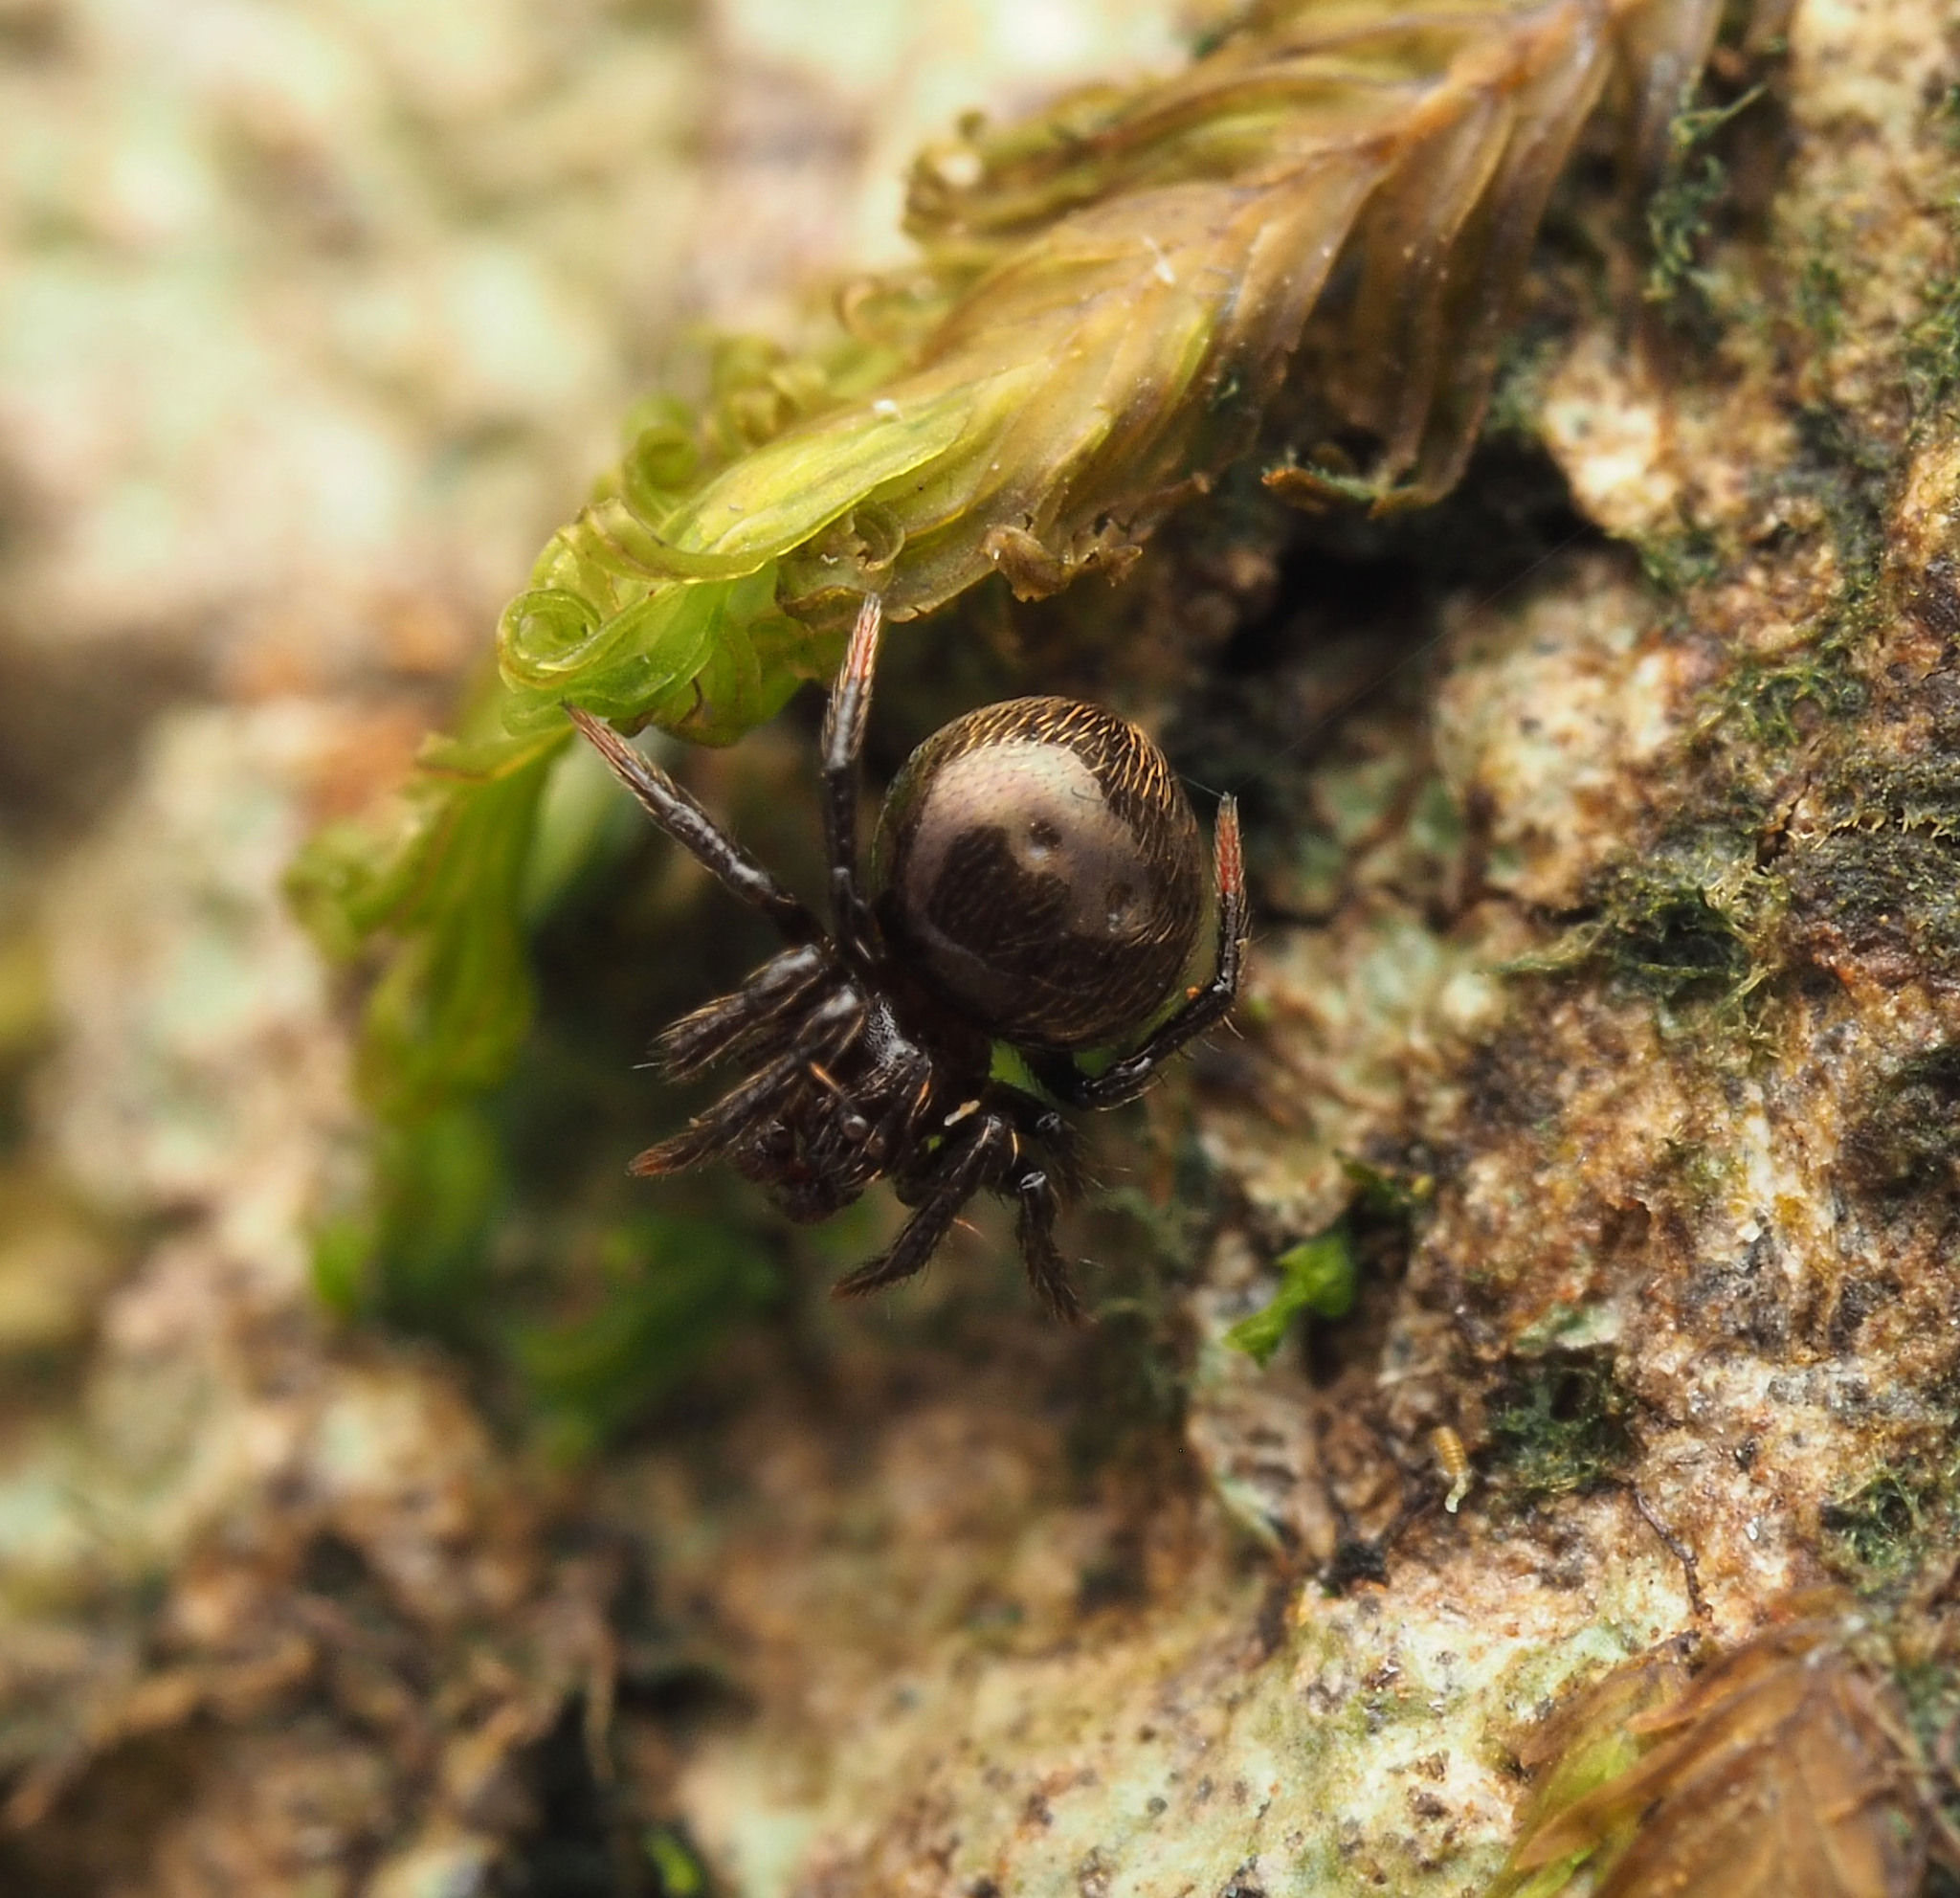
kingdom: Animalia
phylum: Arthropoda
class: Arachnida
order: Araneae
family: Theridiidae
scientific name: Theridiidae
